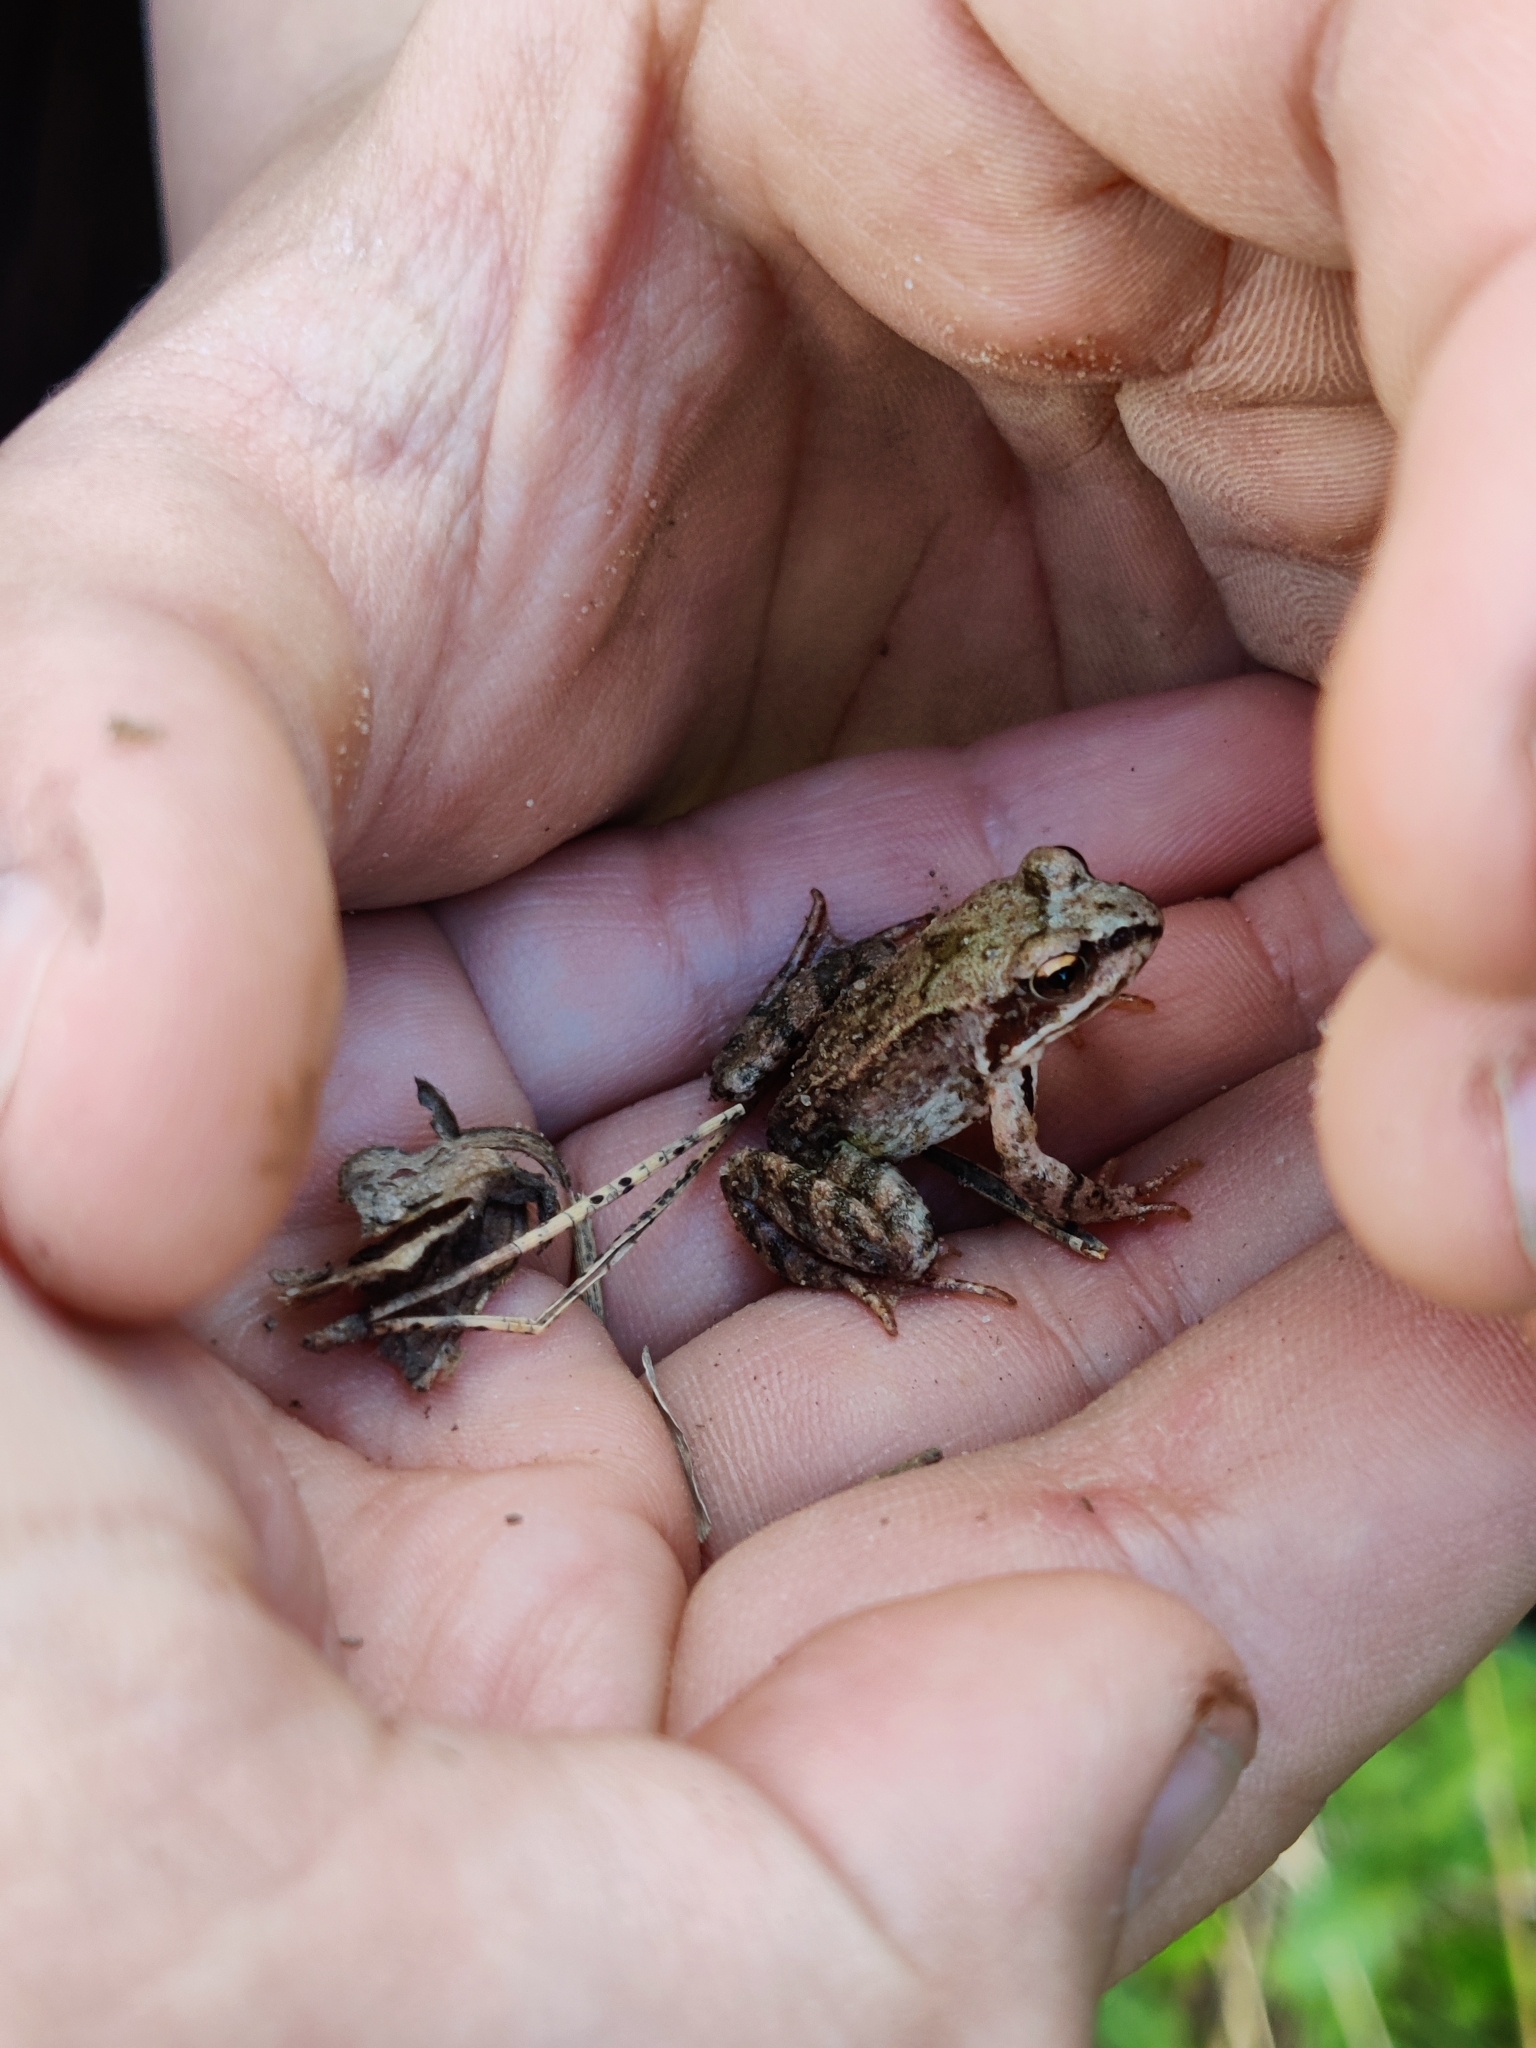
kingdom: Animalia
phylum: Chordata
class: Amphibia
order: Anura
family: Ranidae
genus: Rana
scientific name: Rana temporaria
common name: Common frog
